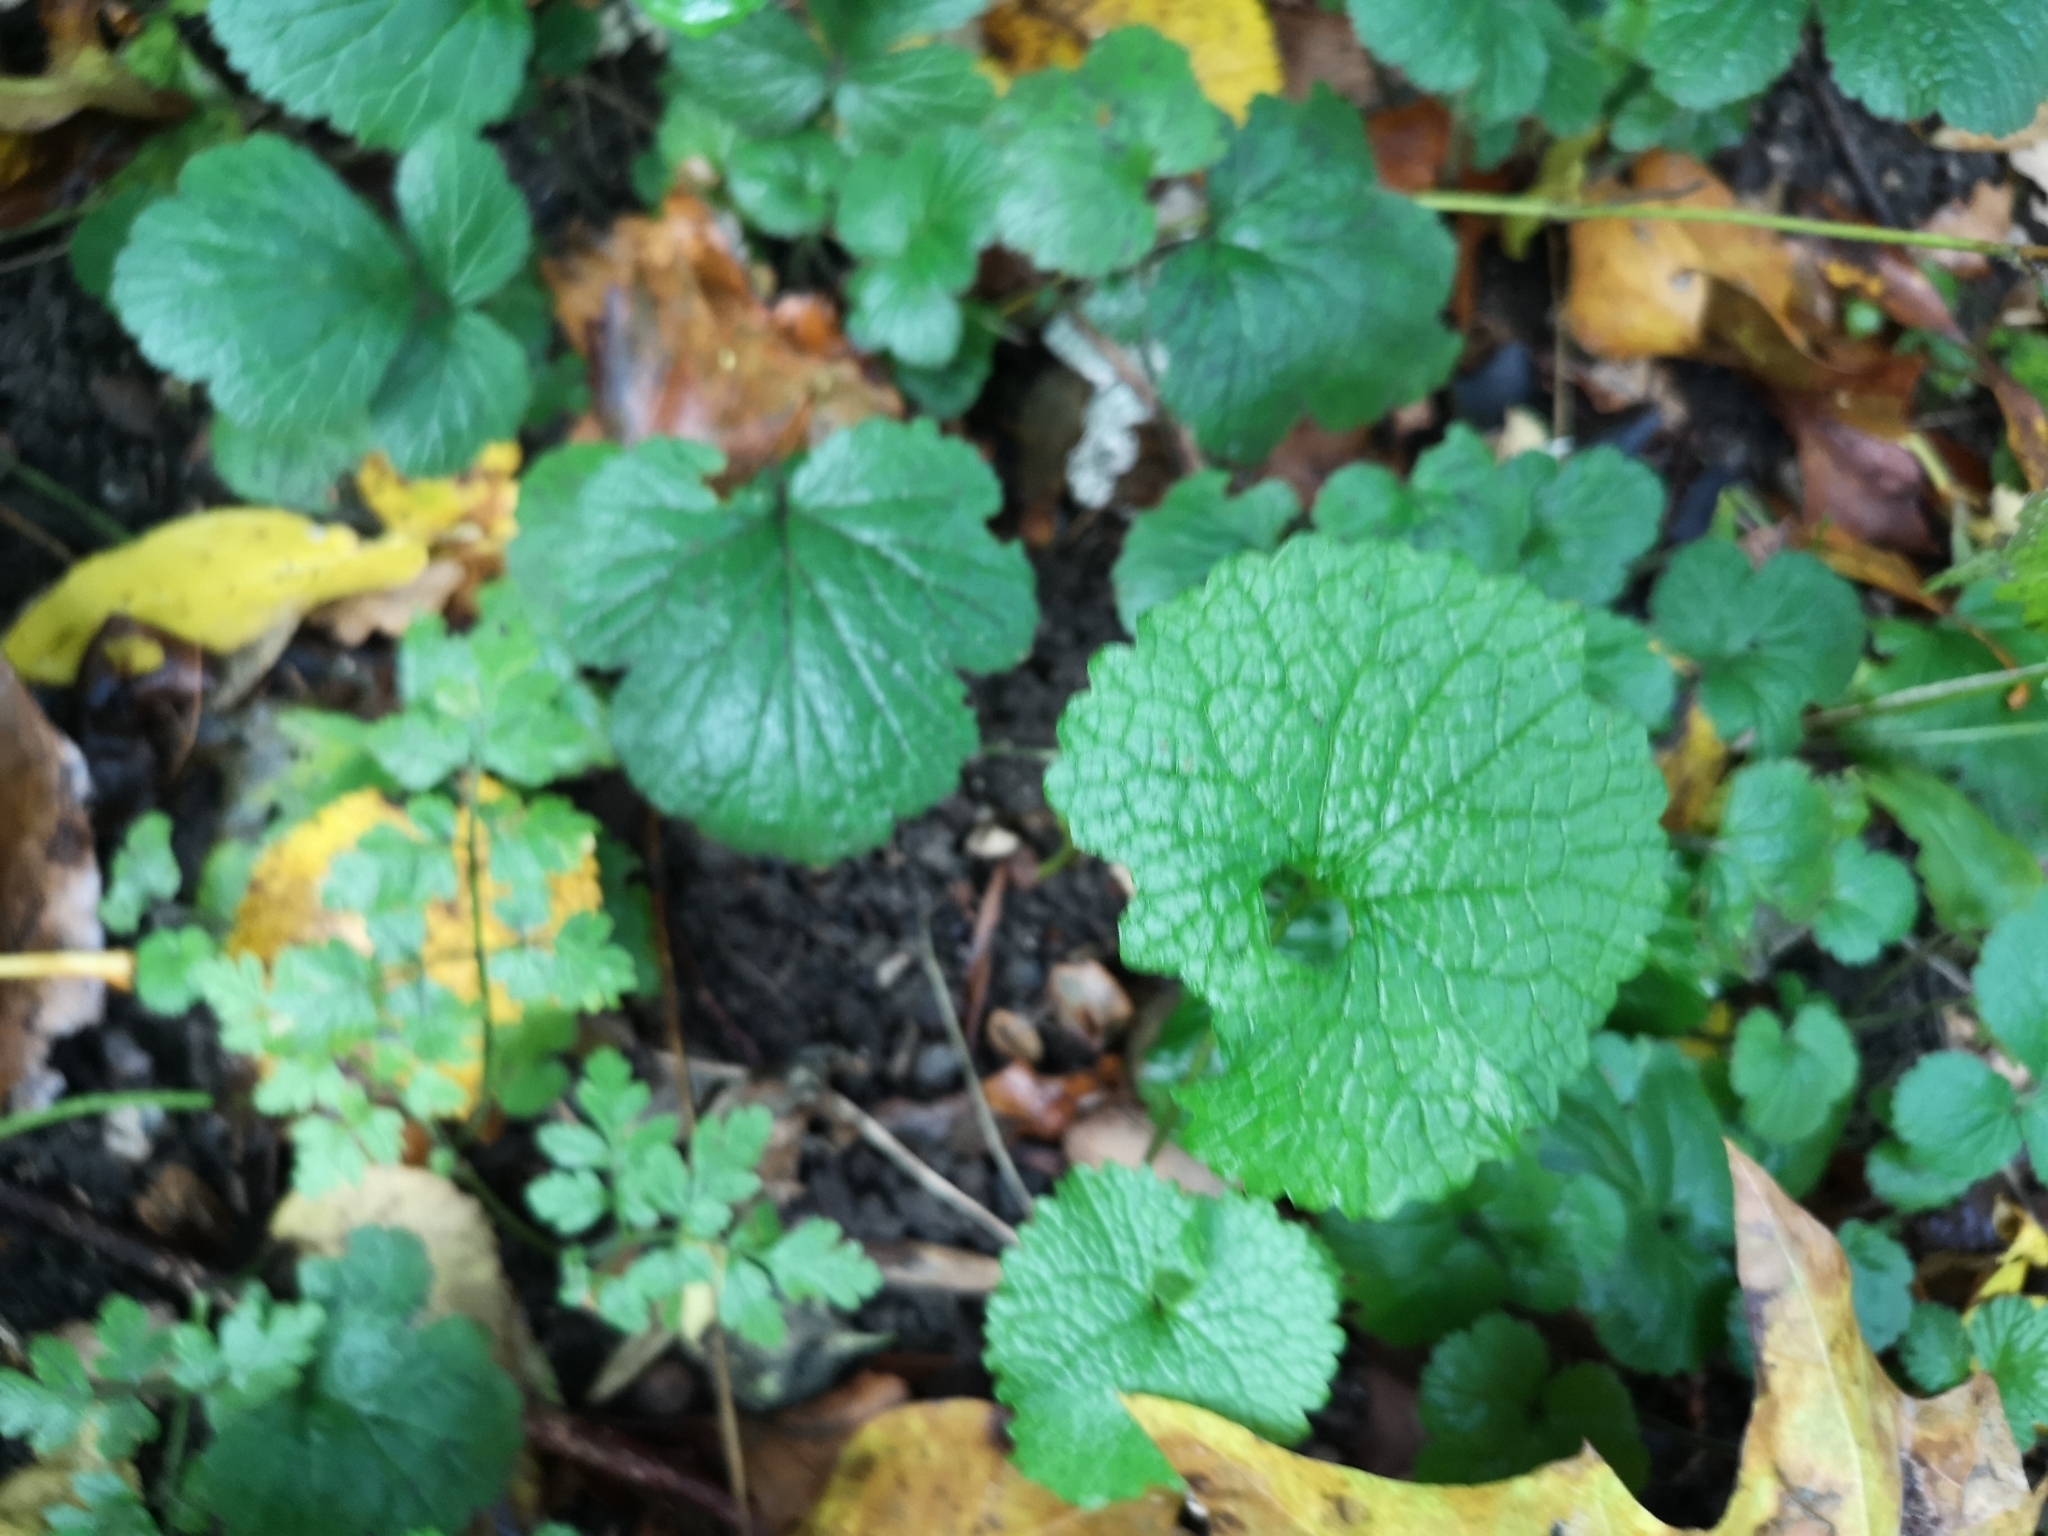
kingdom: Plantae
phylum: Tracheophyta
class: Magnoliopsida
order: Brassicales
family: Brassicaceae
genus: Alliaria
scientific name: Alliaria petiolata
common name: Garlic mustard
